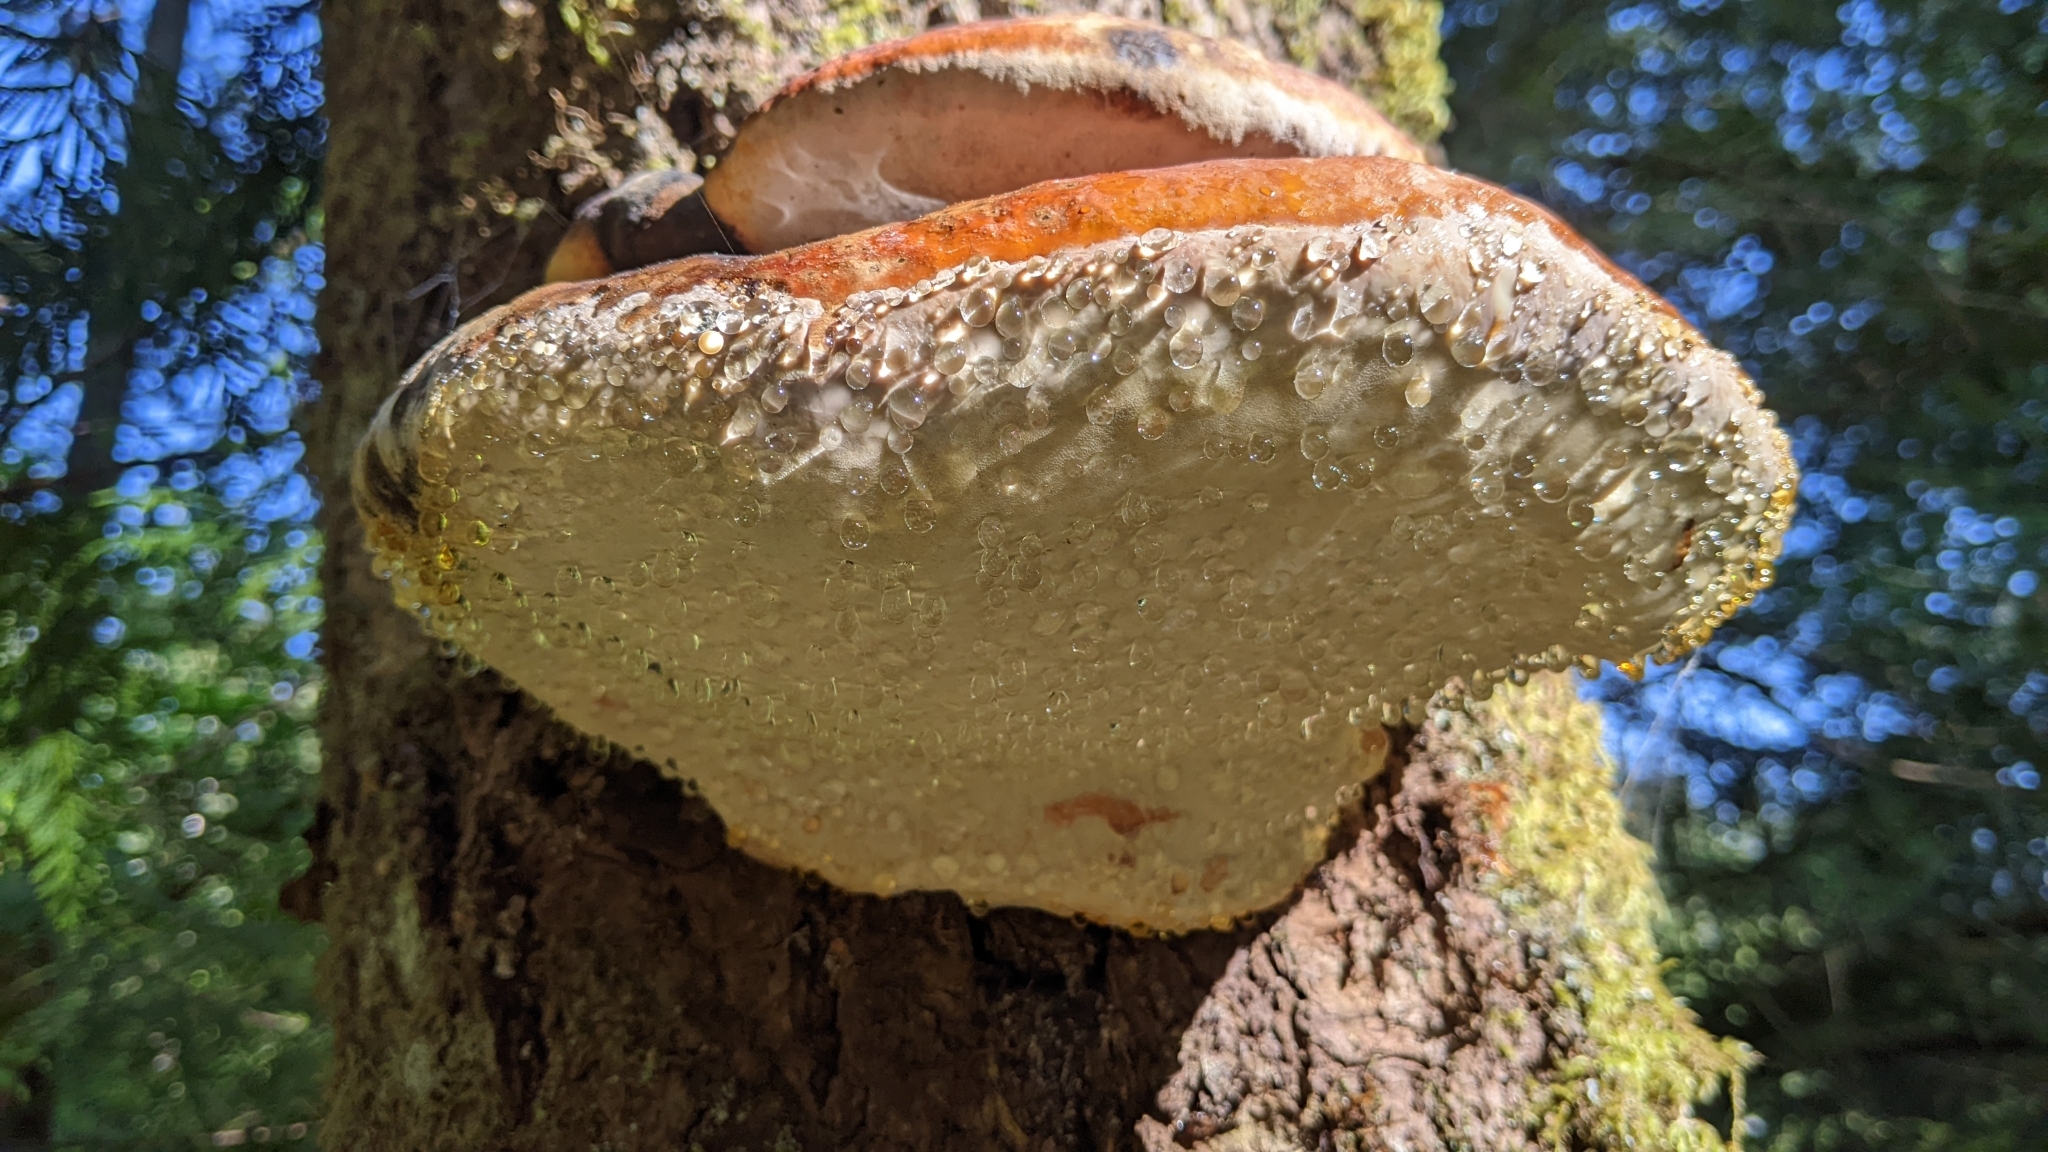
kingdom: Fungi
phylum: Basidiomycota
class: Agaricomycetes
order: Polyporales
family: Fomitopsidaceae
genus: Fomitopsis
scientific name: Fomitopsis mounceae
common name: Northern red belt
